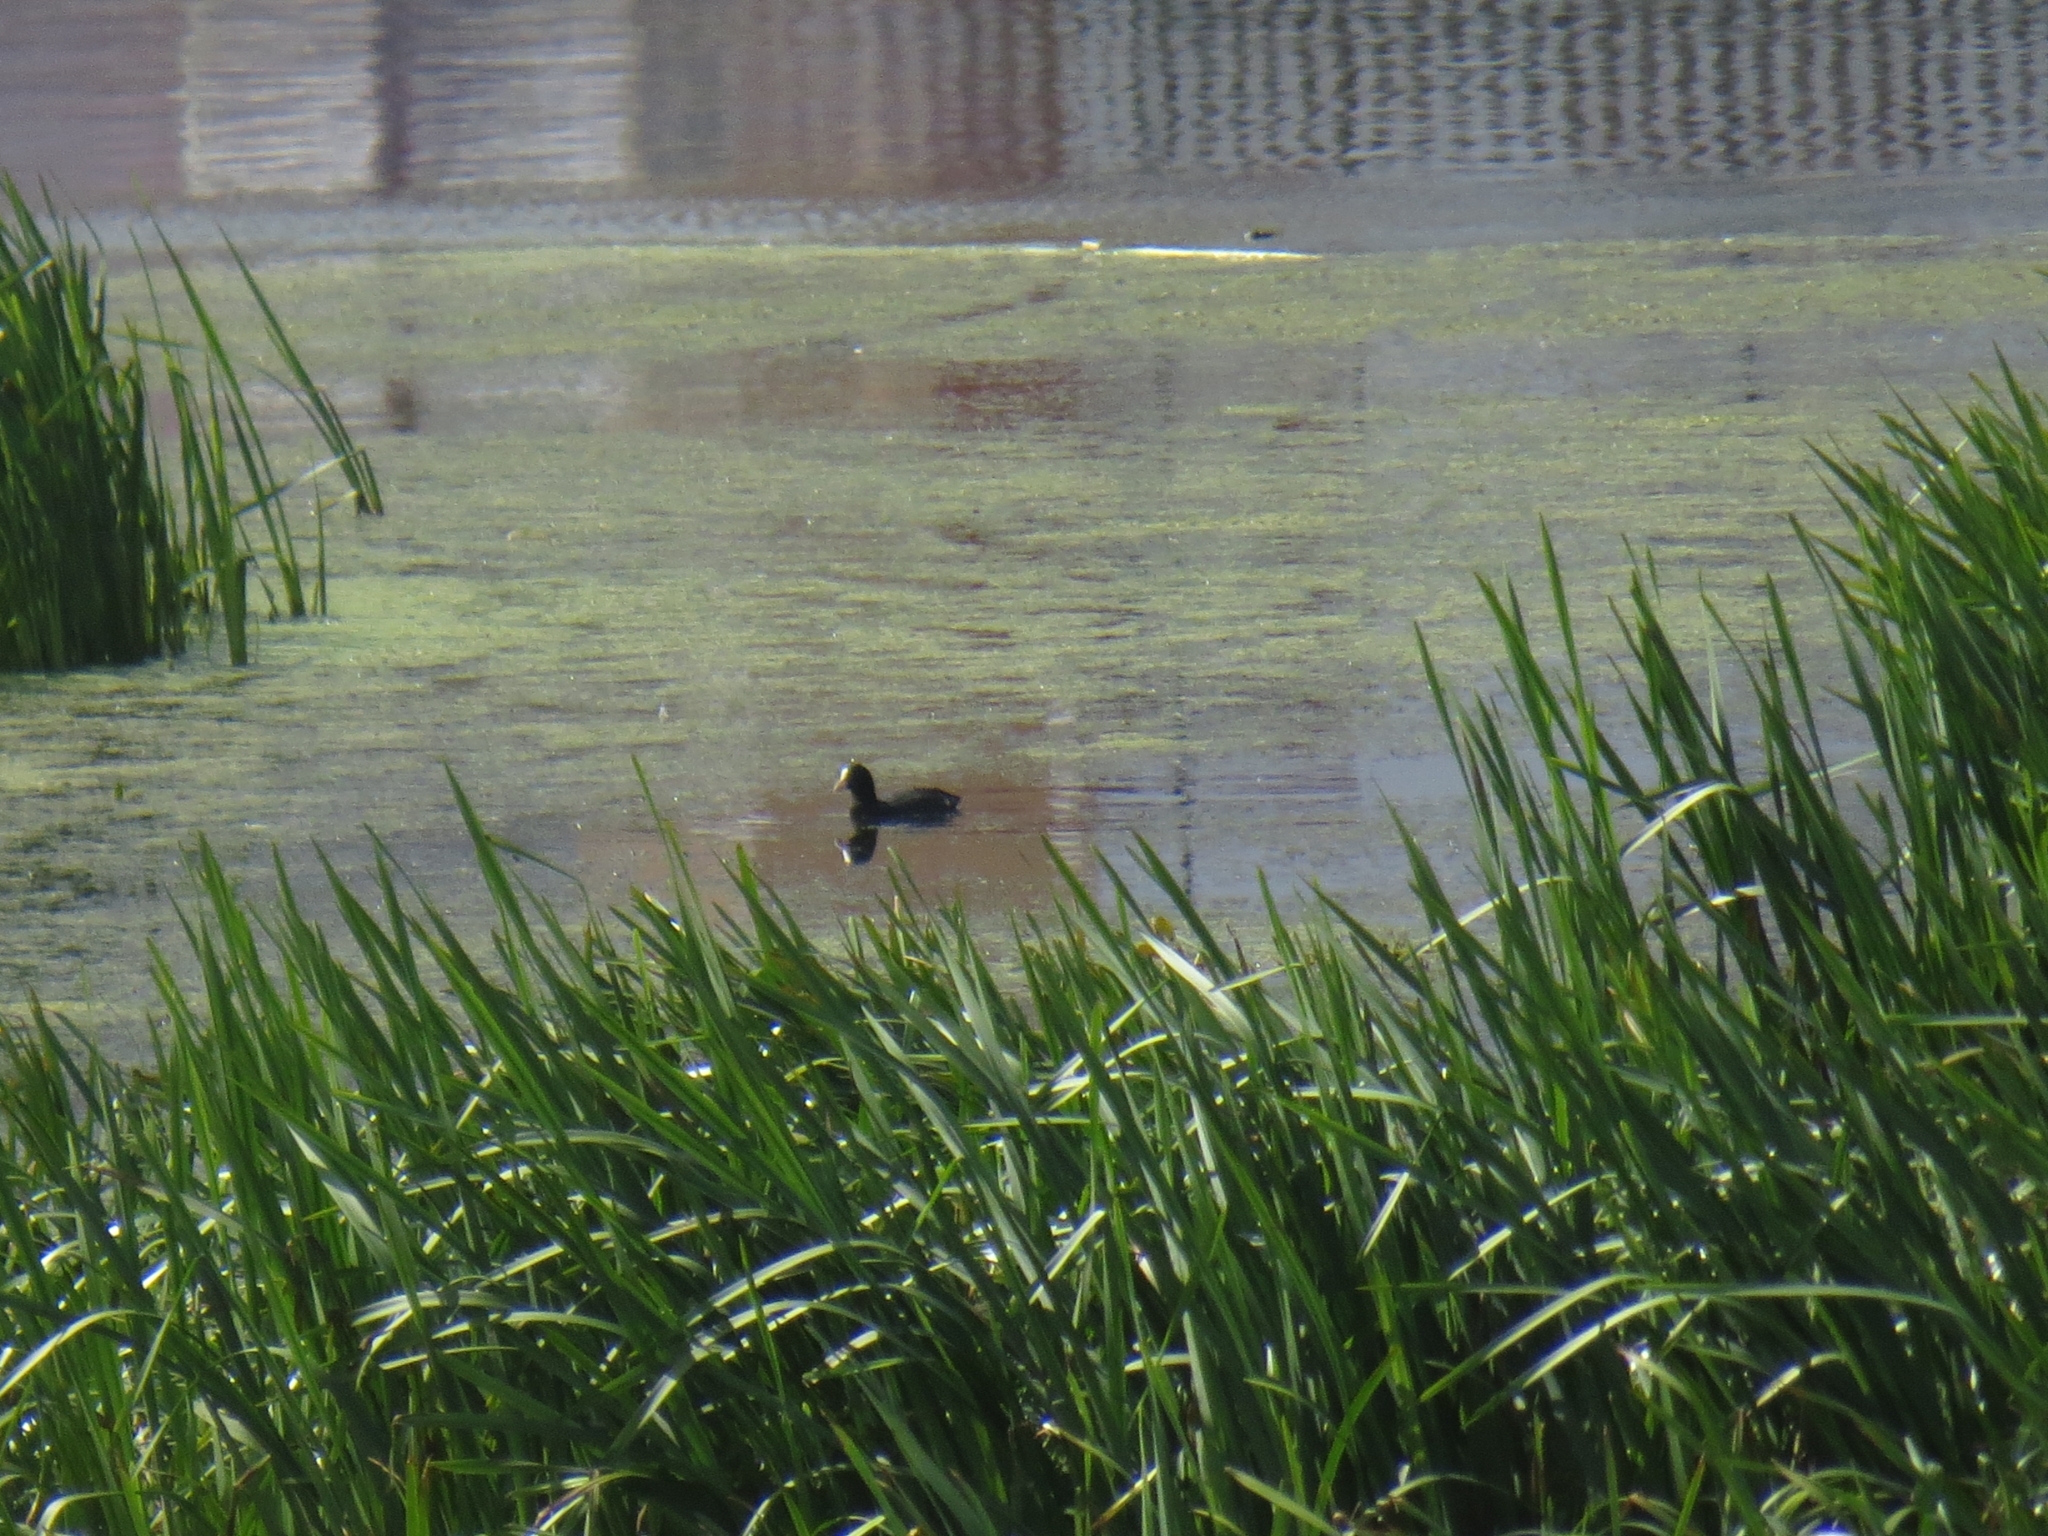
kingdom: Animalia
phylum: Chordata
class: Aves
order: Gruiformes
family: Rallidae
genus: Fulica
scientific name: Fulica atra
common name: Eurasian coot
